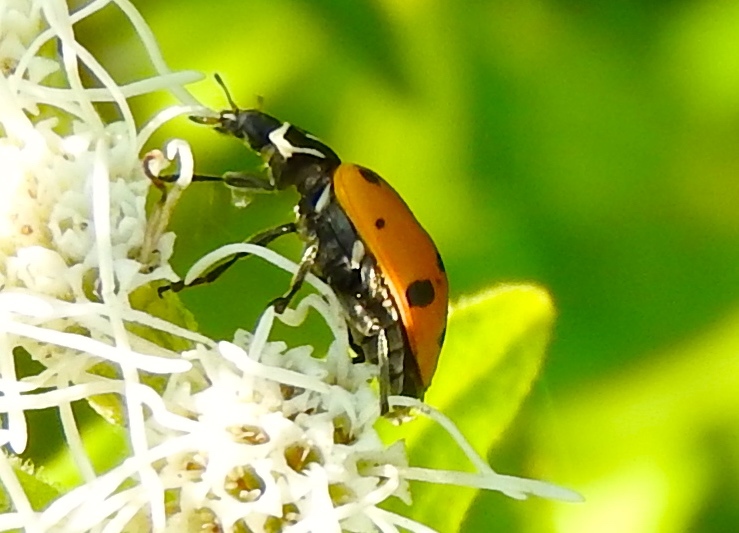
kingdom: Animalia
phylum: Arthropoda
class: Insecta
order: Coleoptera
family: Coccinellidae
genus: Hippodamia
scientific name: Hippodamia convergens
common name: Convergent lady beetle
